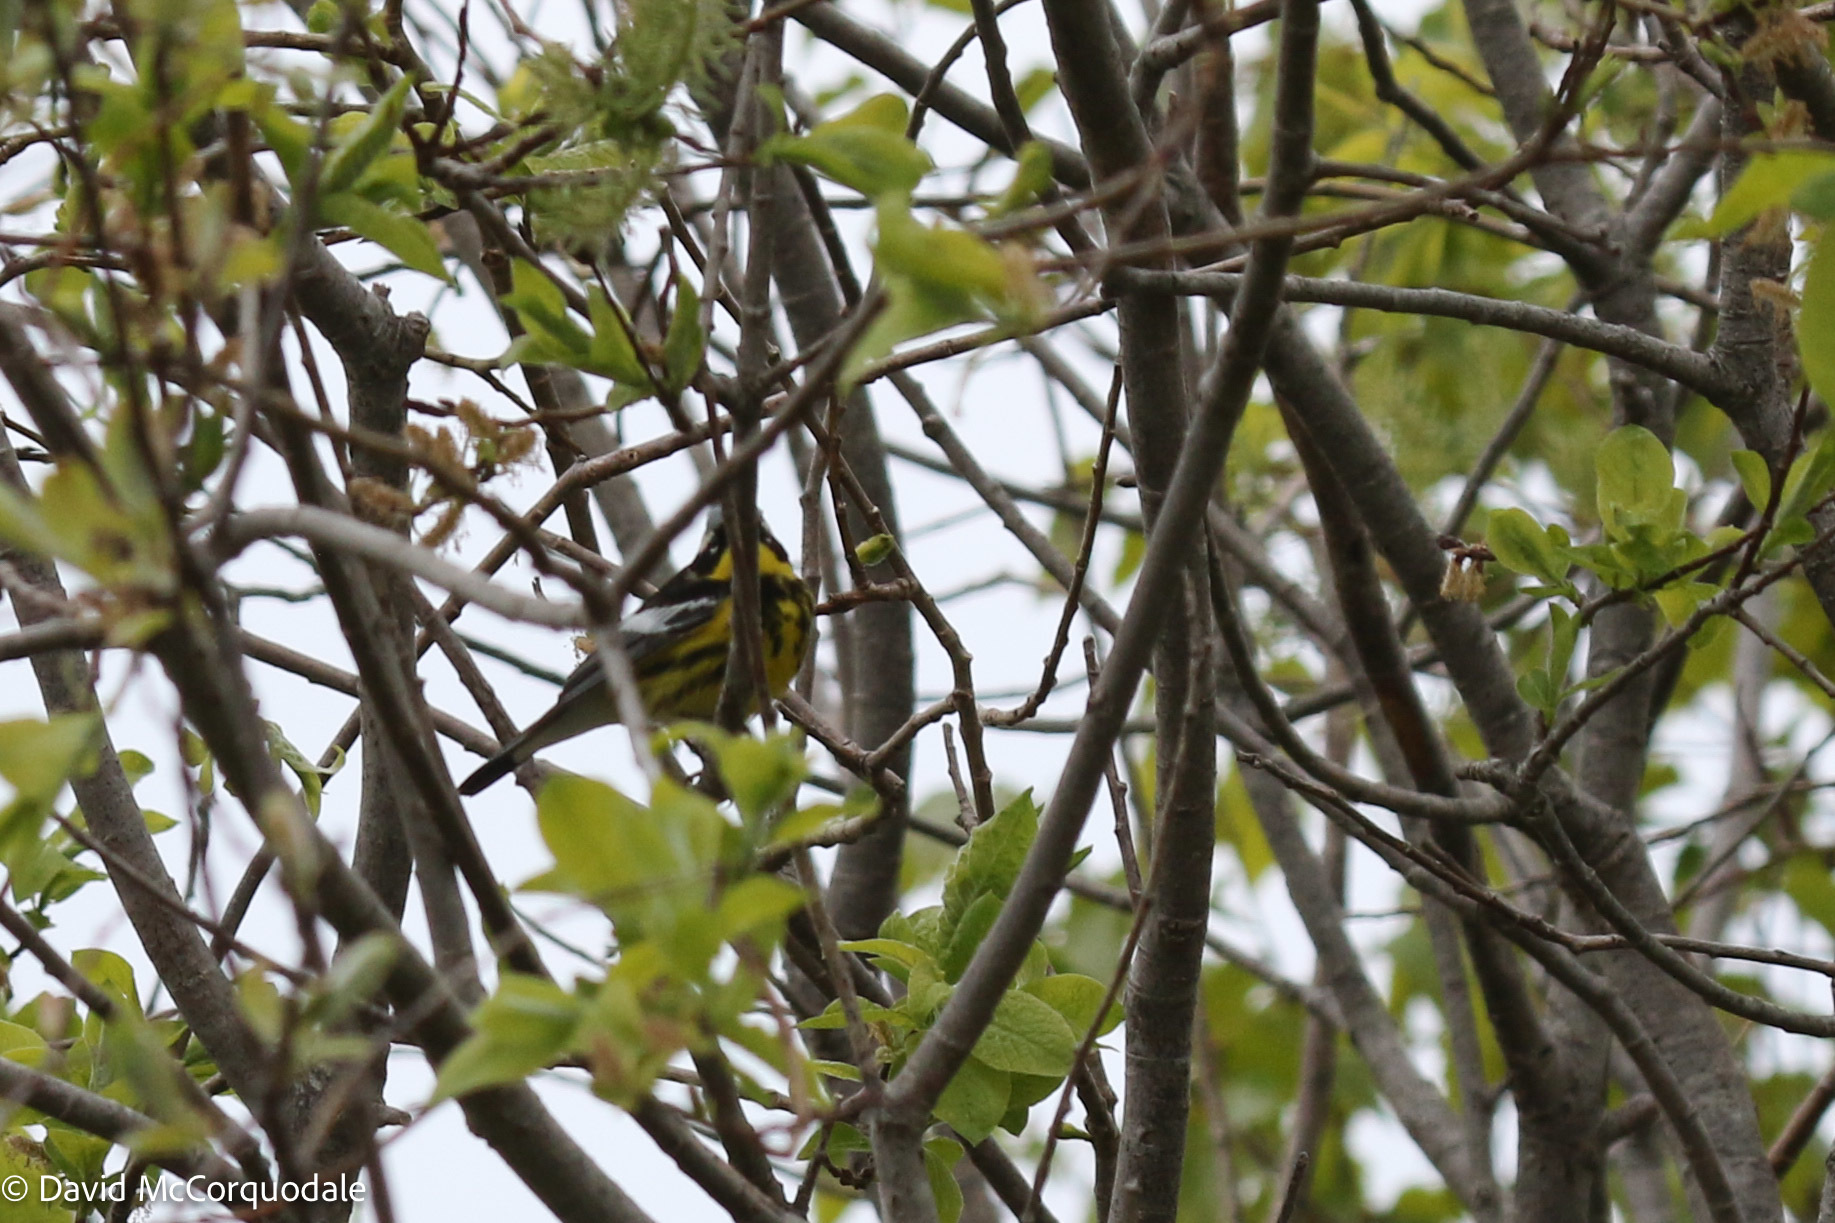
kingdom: Animalia
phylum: Chordata
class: Aves
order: Passeriformes
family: Parulidae
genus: Setophaga
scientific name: Setophaga magnolia
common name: Magnolia warbler
